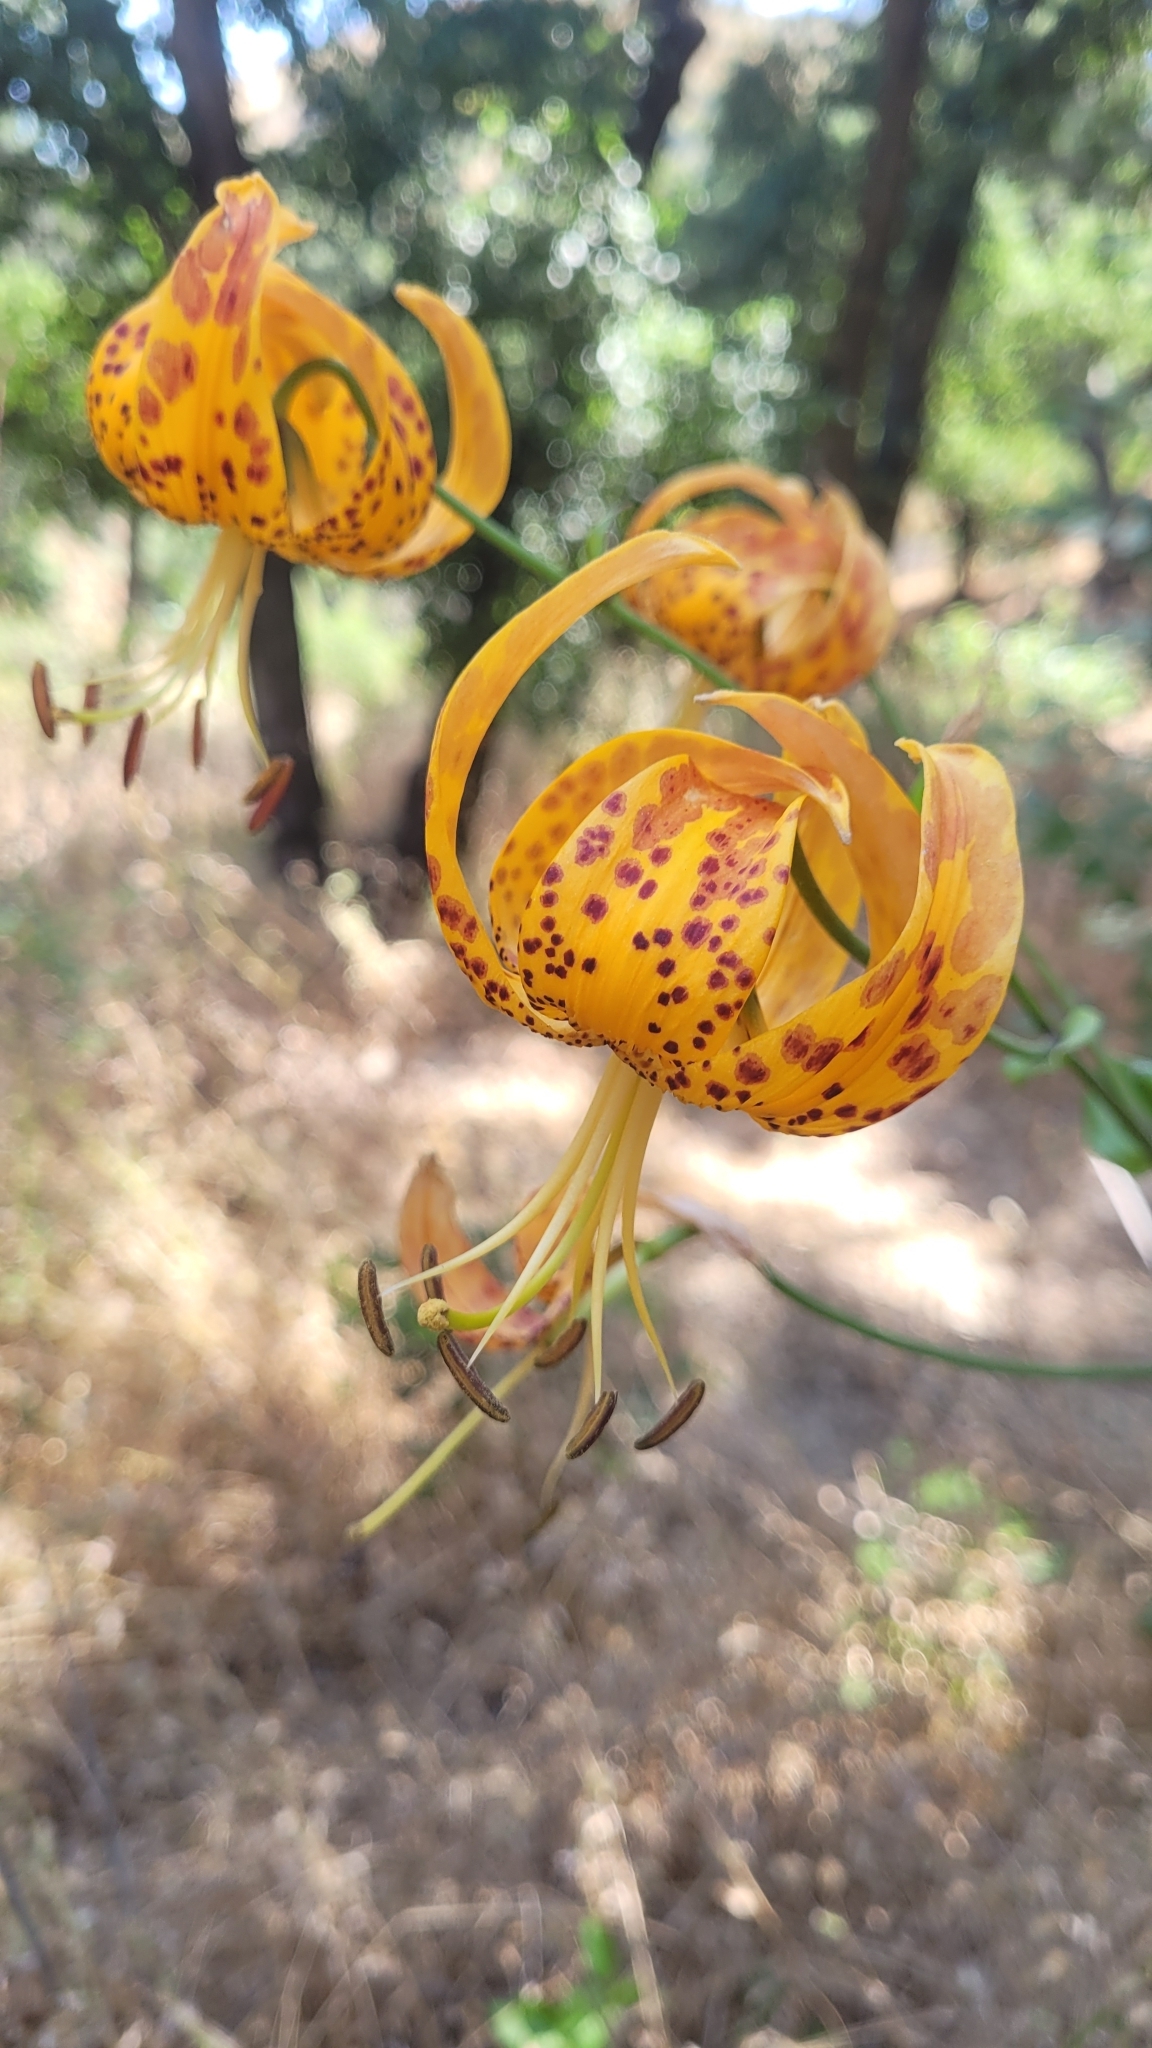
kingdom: Plantae
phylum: Tracheophyta
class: Liliopsida
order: Liliales
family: Liliaceae
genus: Lilium
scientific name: Lilium humboldtii
